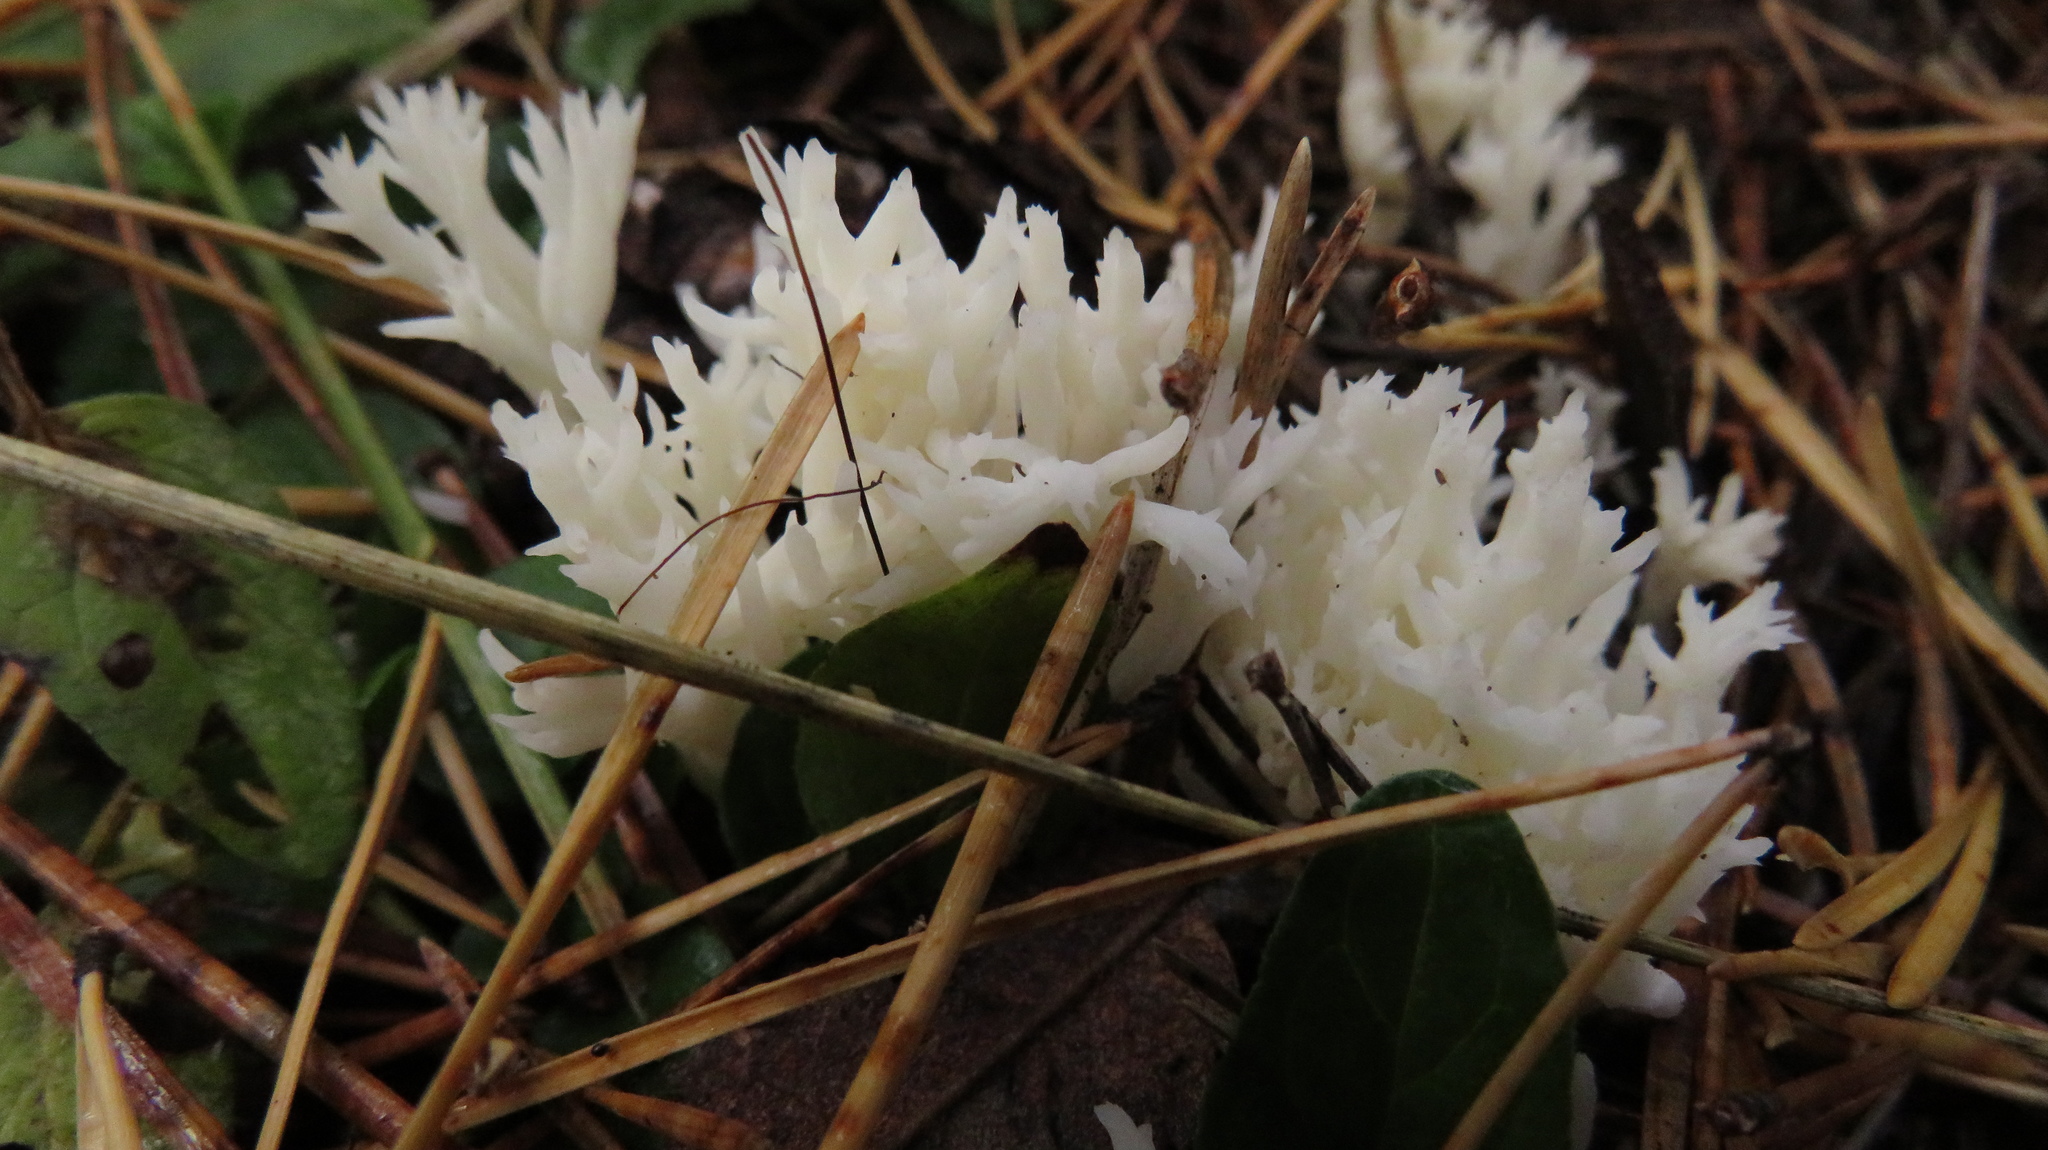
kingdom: Fungi
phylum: Basidiomycota
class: Agaricomycetes
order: Cantharellales
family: Hydnaceae
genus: Clavulina
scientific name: Clavulina coralloides
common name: Crested coral
